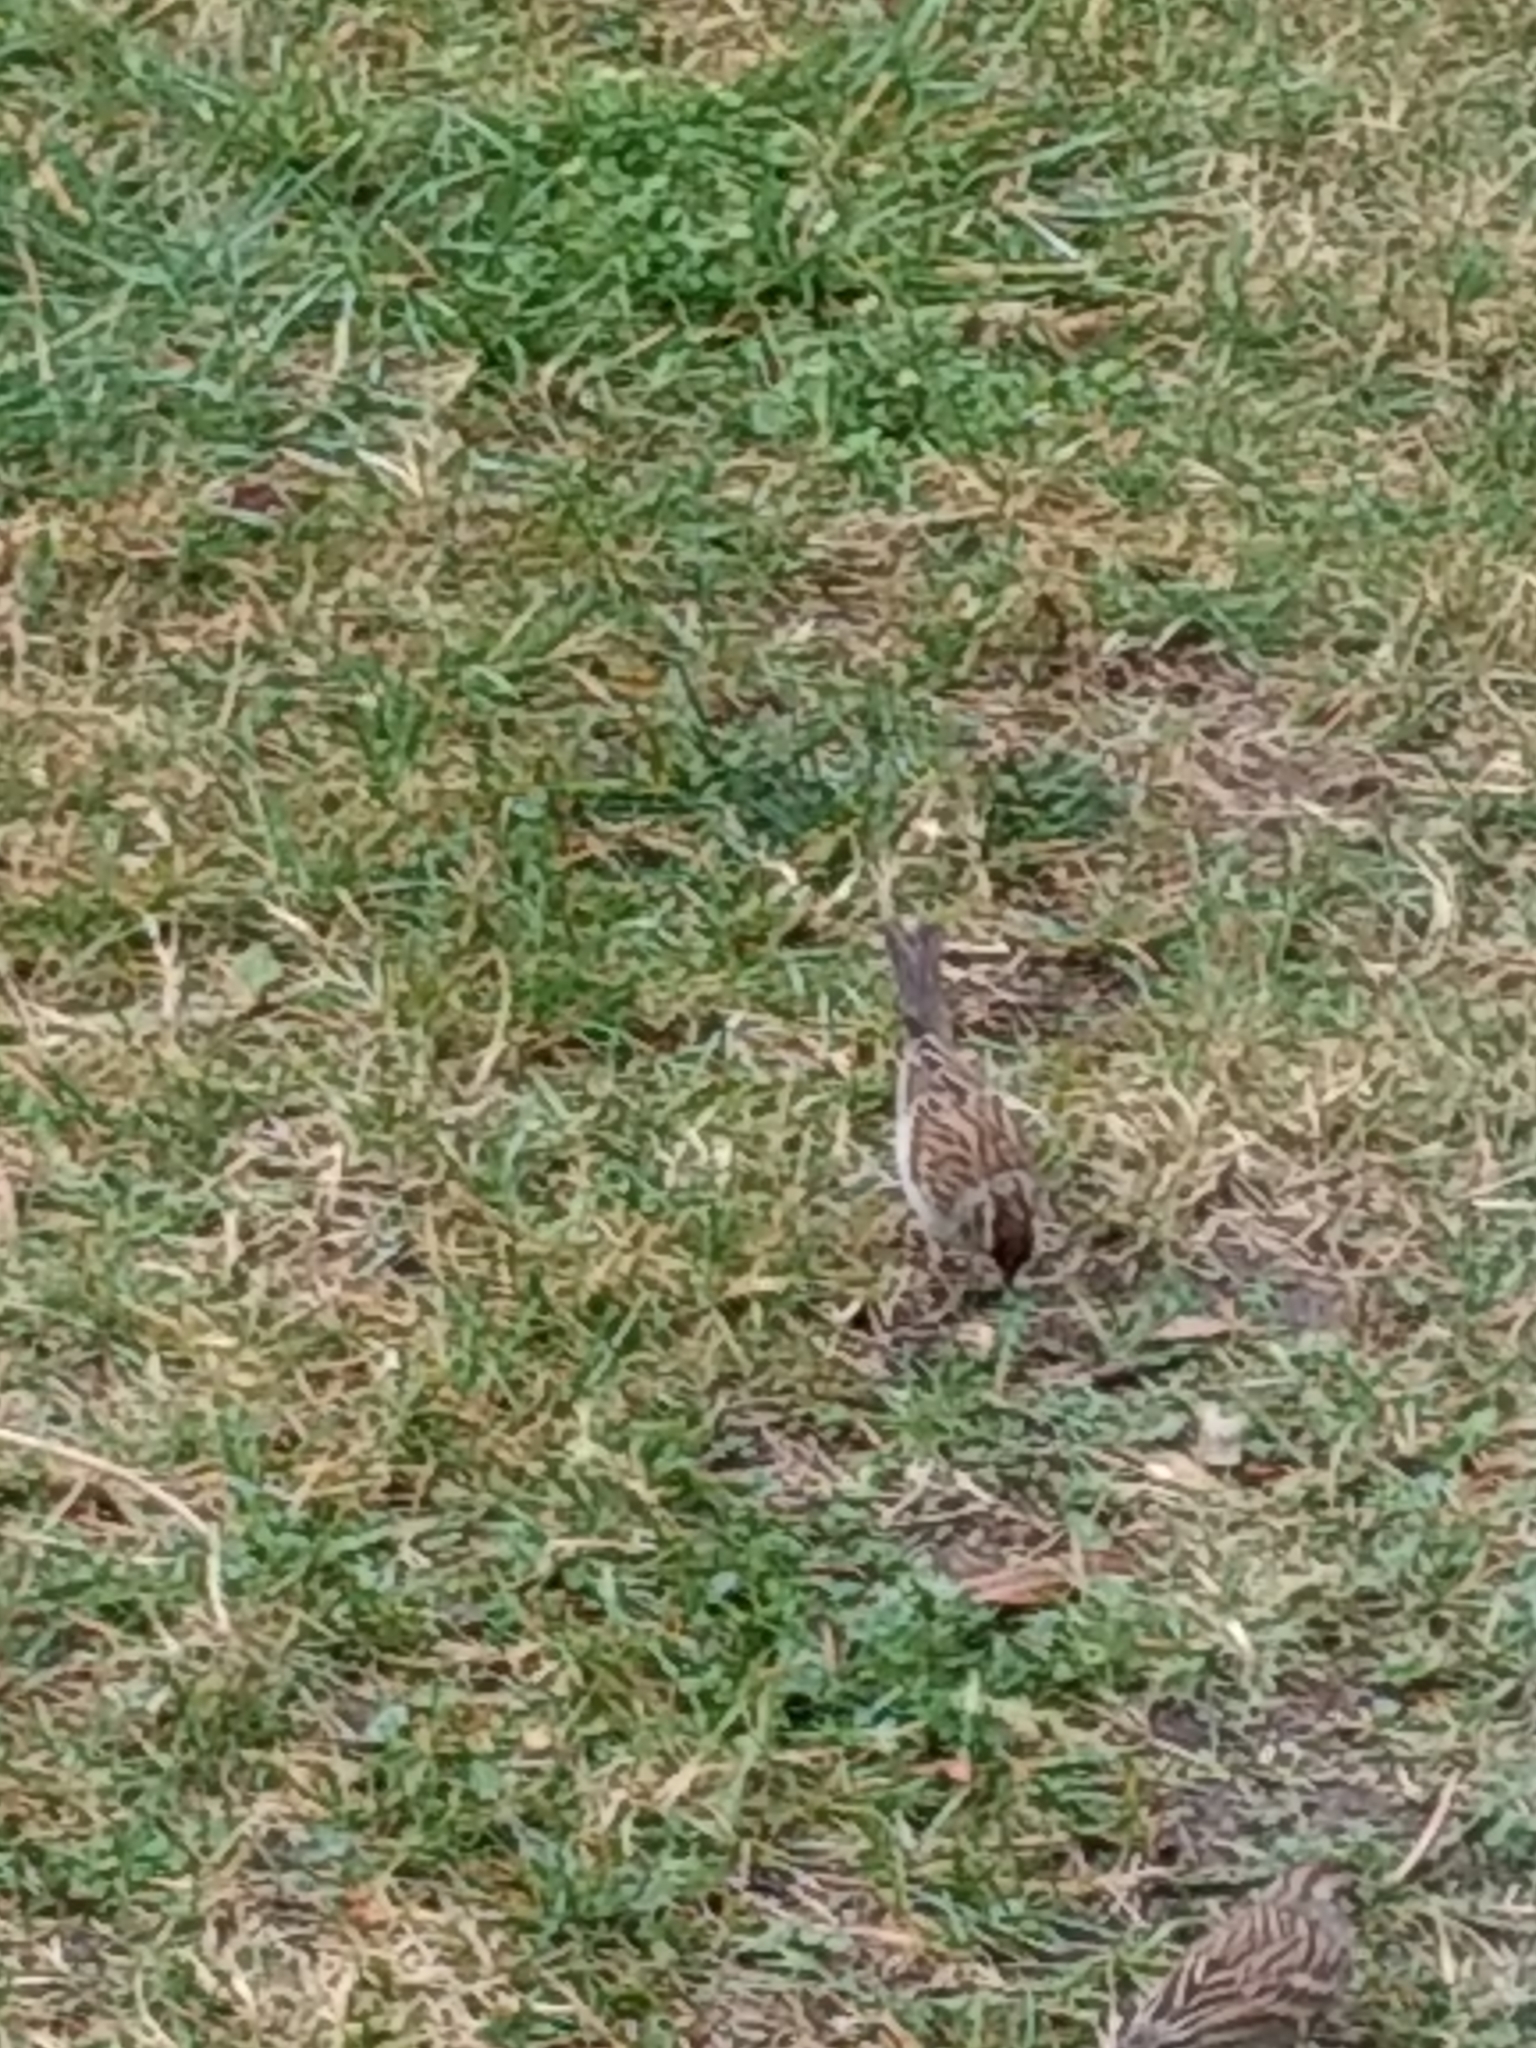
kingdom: Animalia
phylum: Chordata
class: Aves
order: Passeriformes
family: Passerellidae
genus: Spizella
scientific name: Spizella passerina
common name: Chipping sparrow
